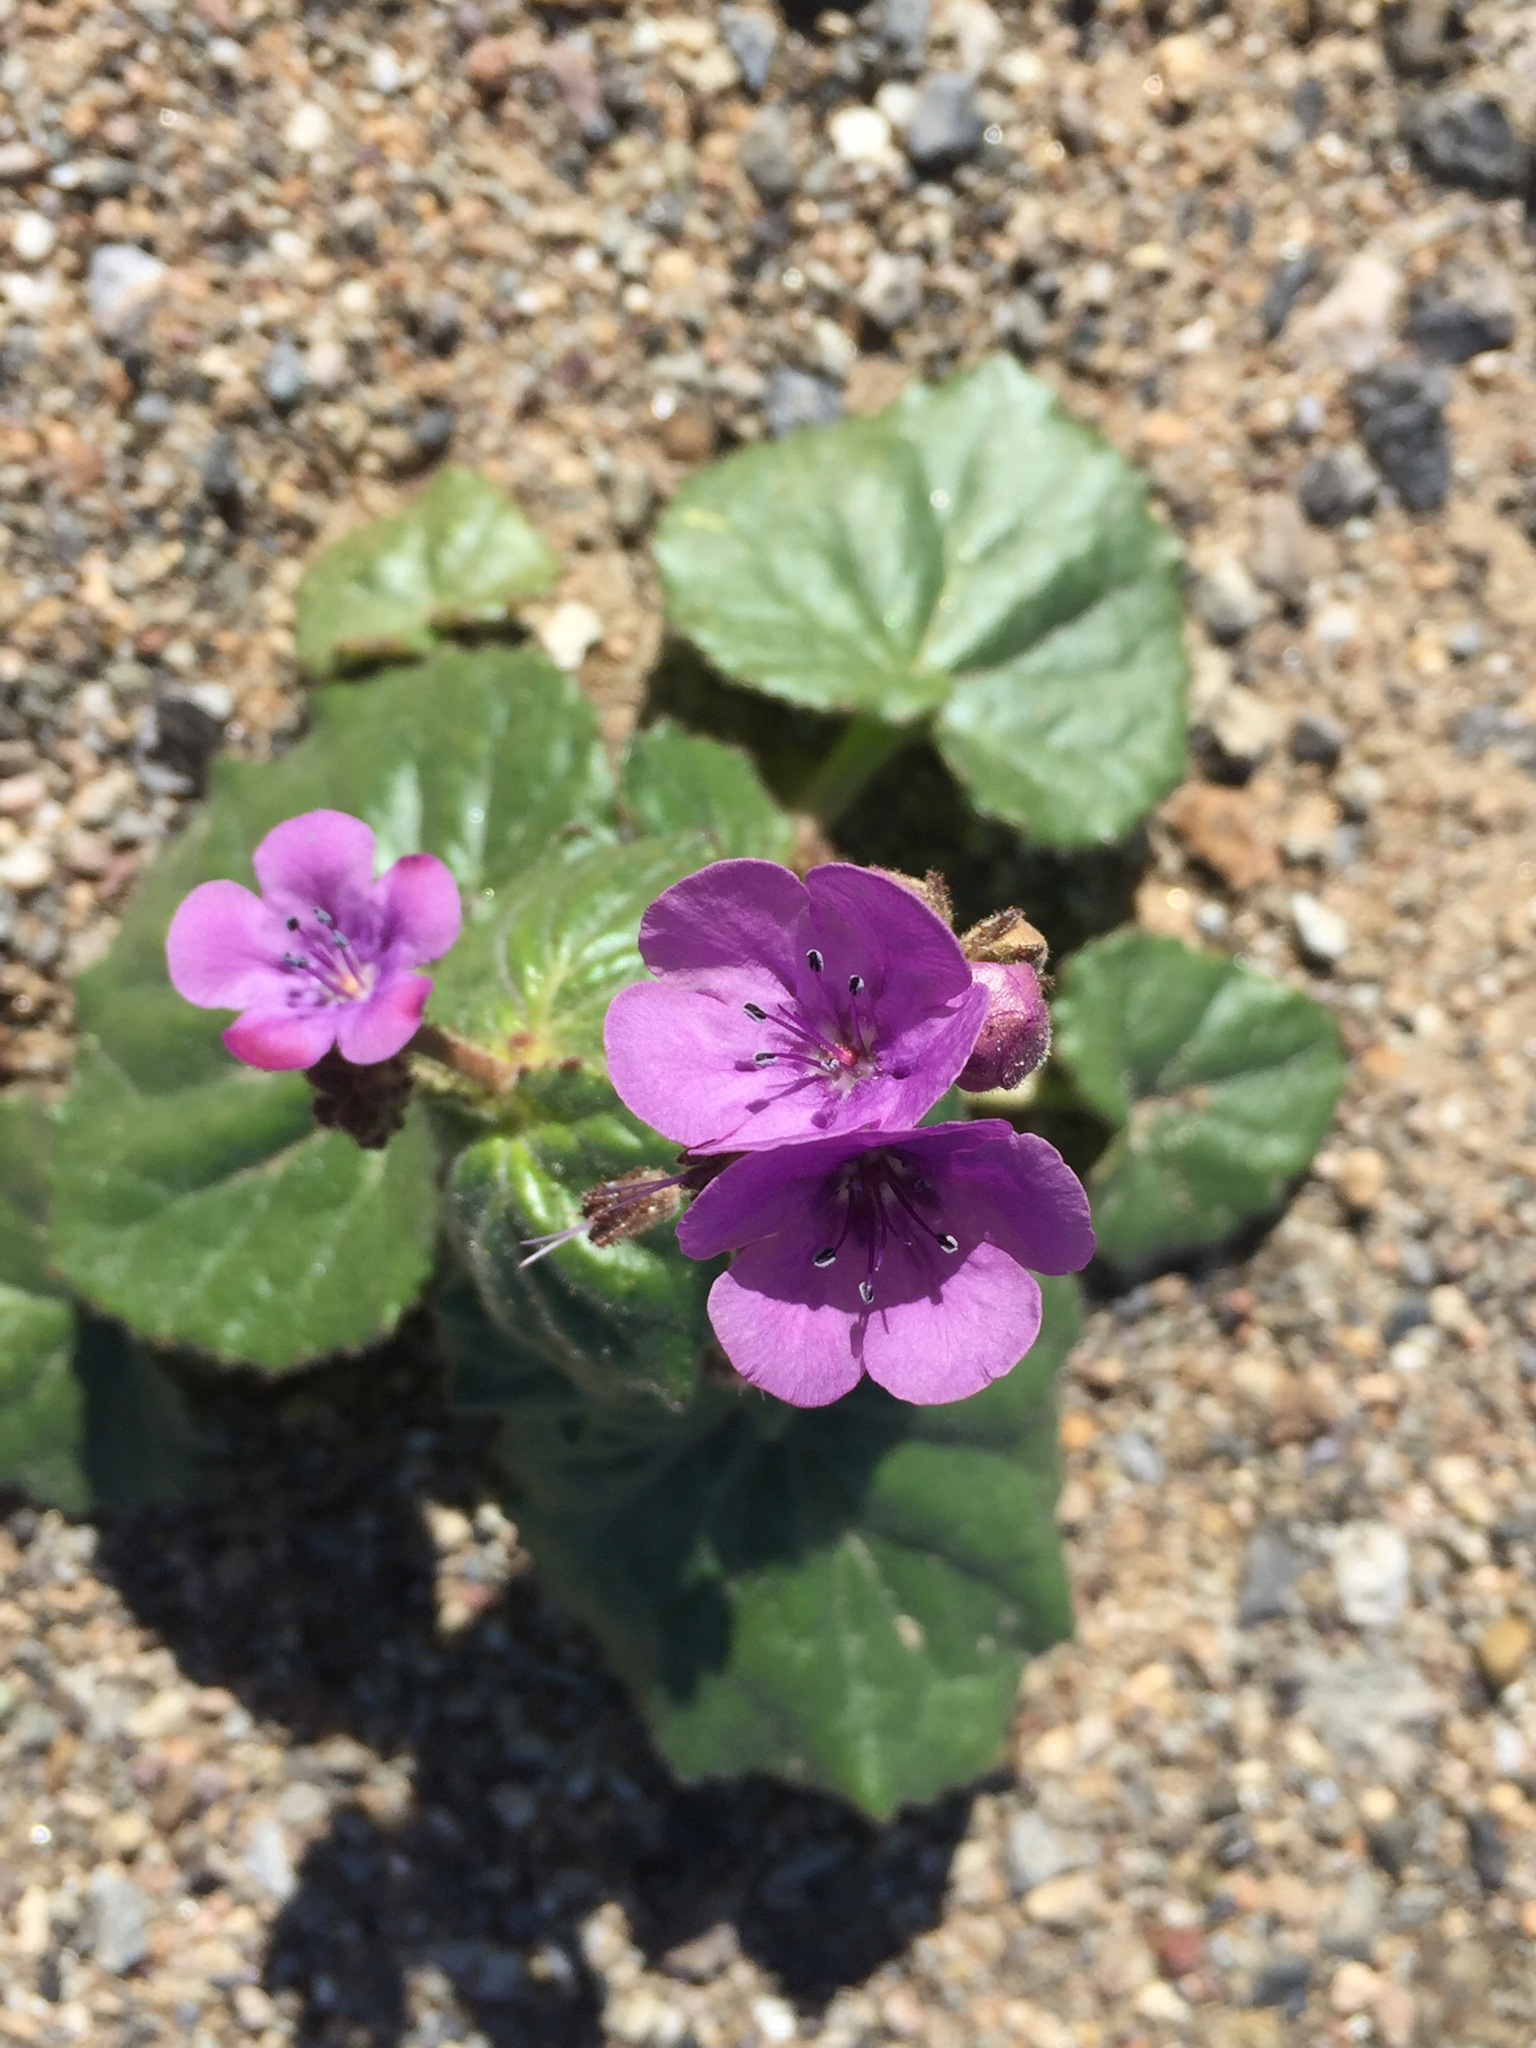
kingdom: Plantae
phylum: Tracheophyta
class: Magnoliopsida
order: Boraginales
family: Hydrophyllaceae
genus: Phacelia
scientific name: Phacelia calthifolia
